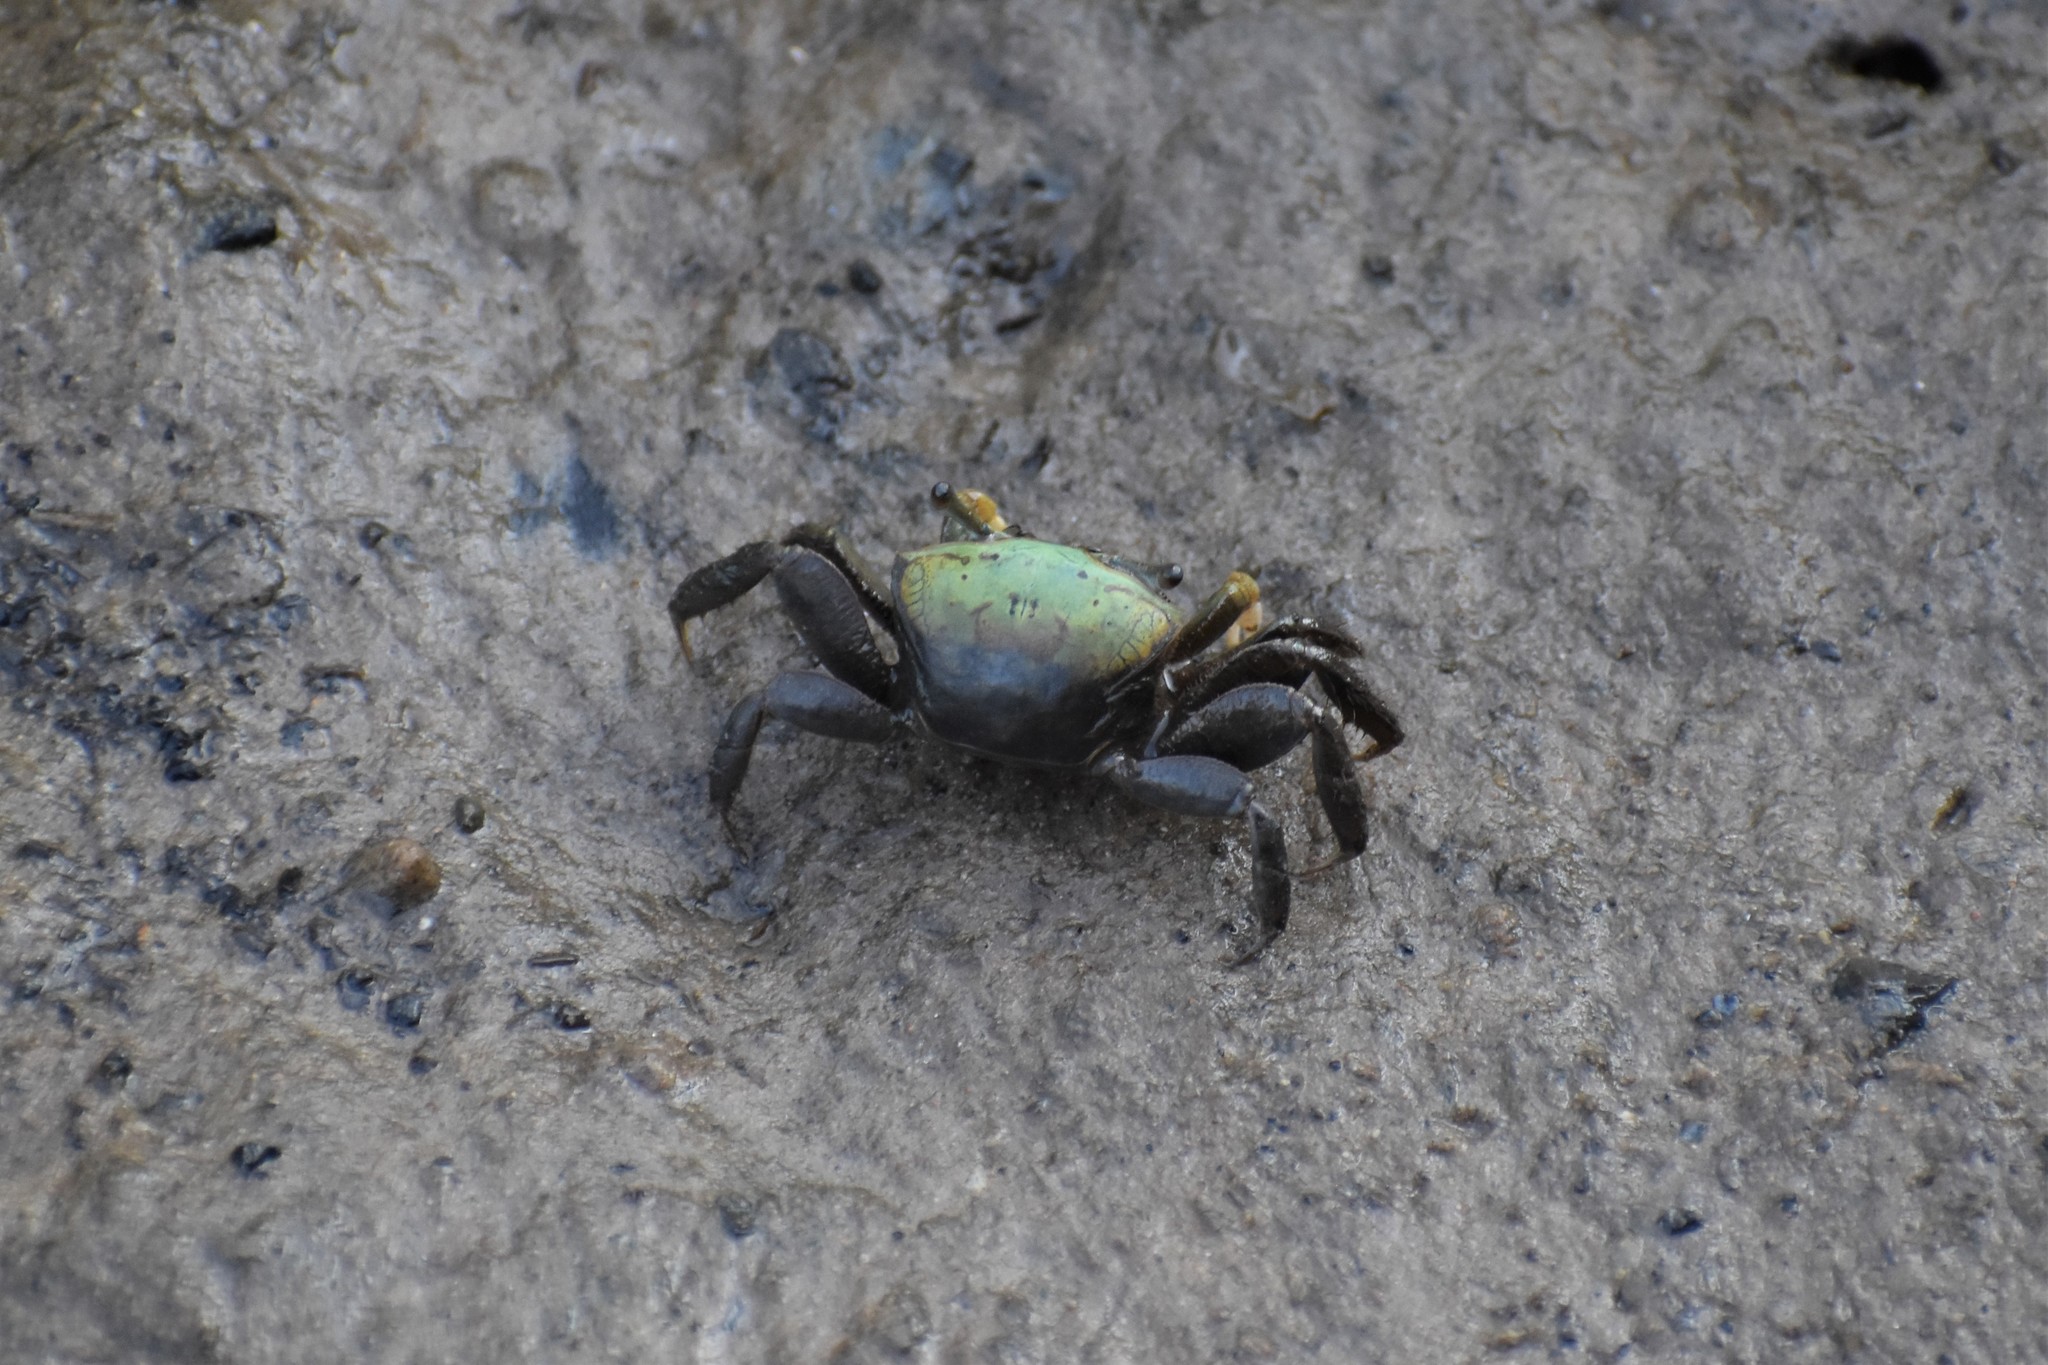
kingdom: Animalia
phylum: Arthropoda
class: Malacostraca
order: Decapoda
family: Ocypodidae
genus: Minuca
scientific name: Minuca longisignalis
